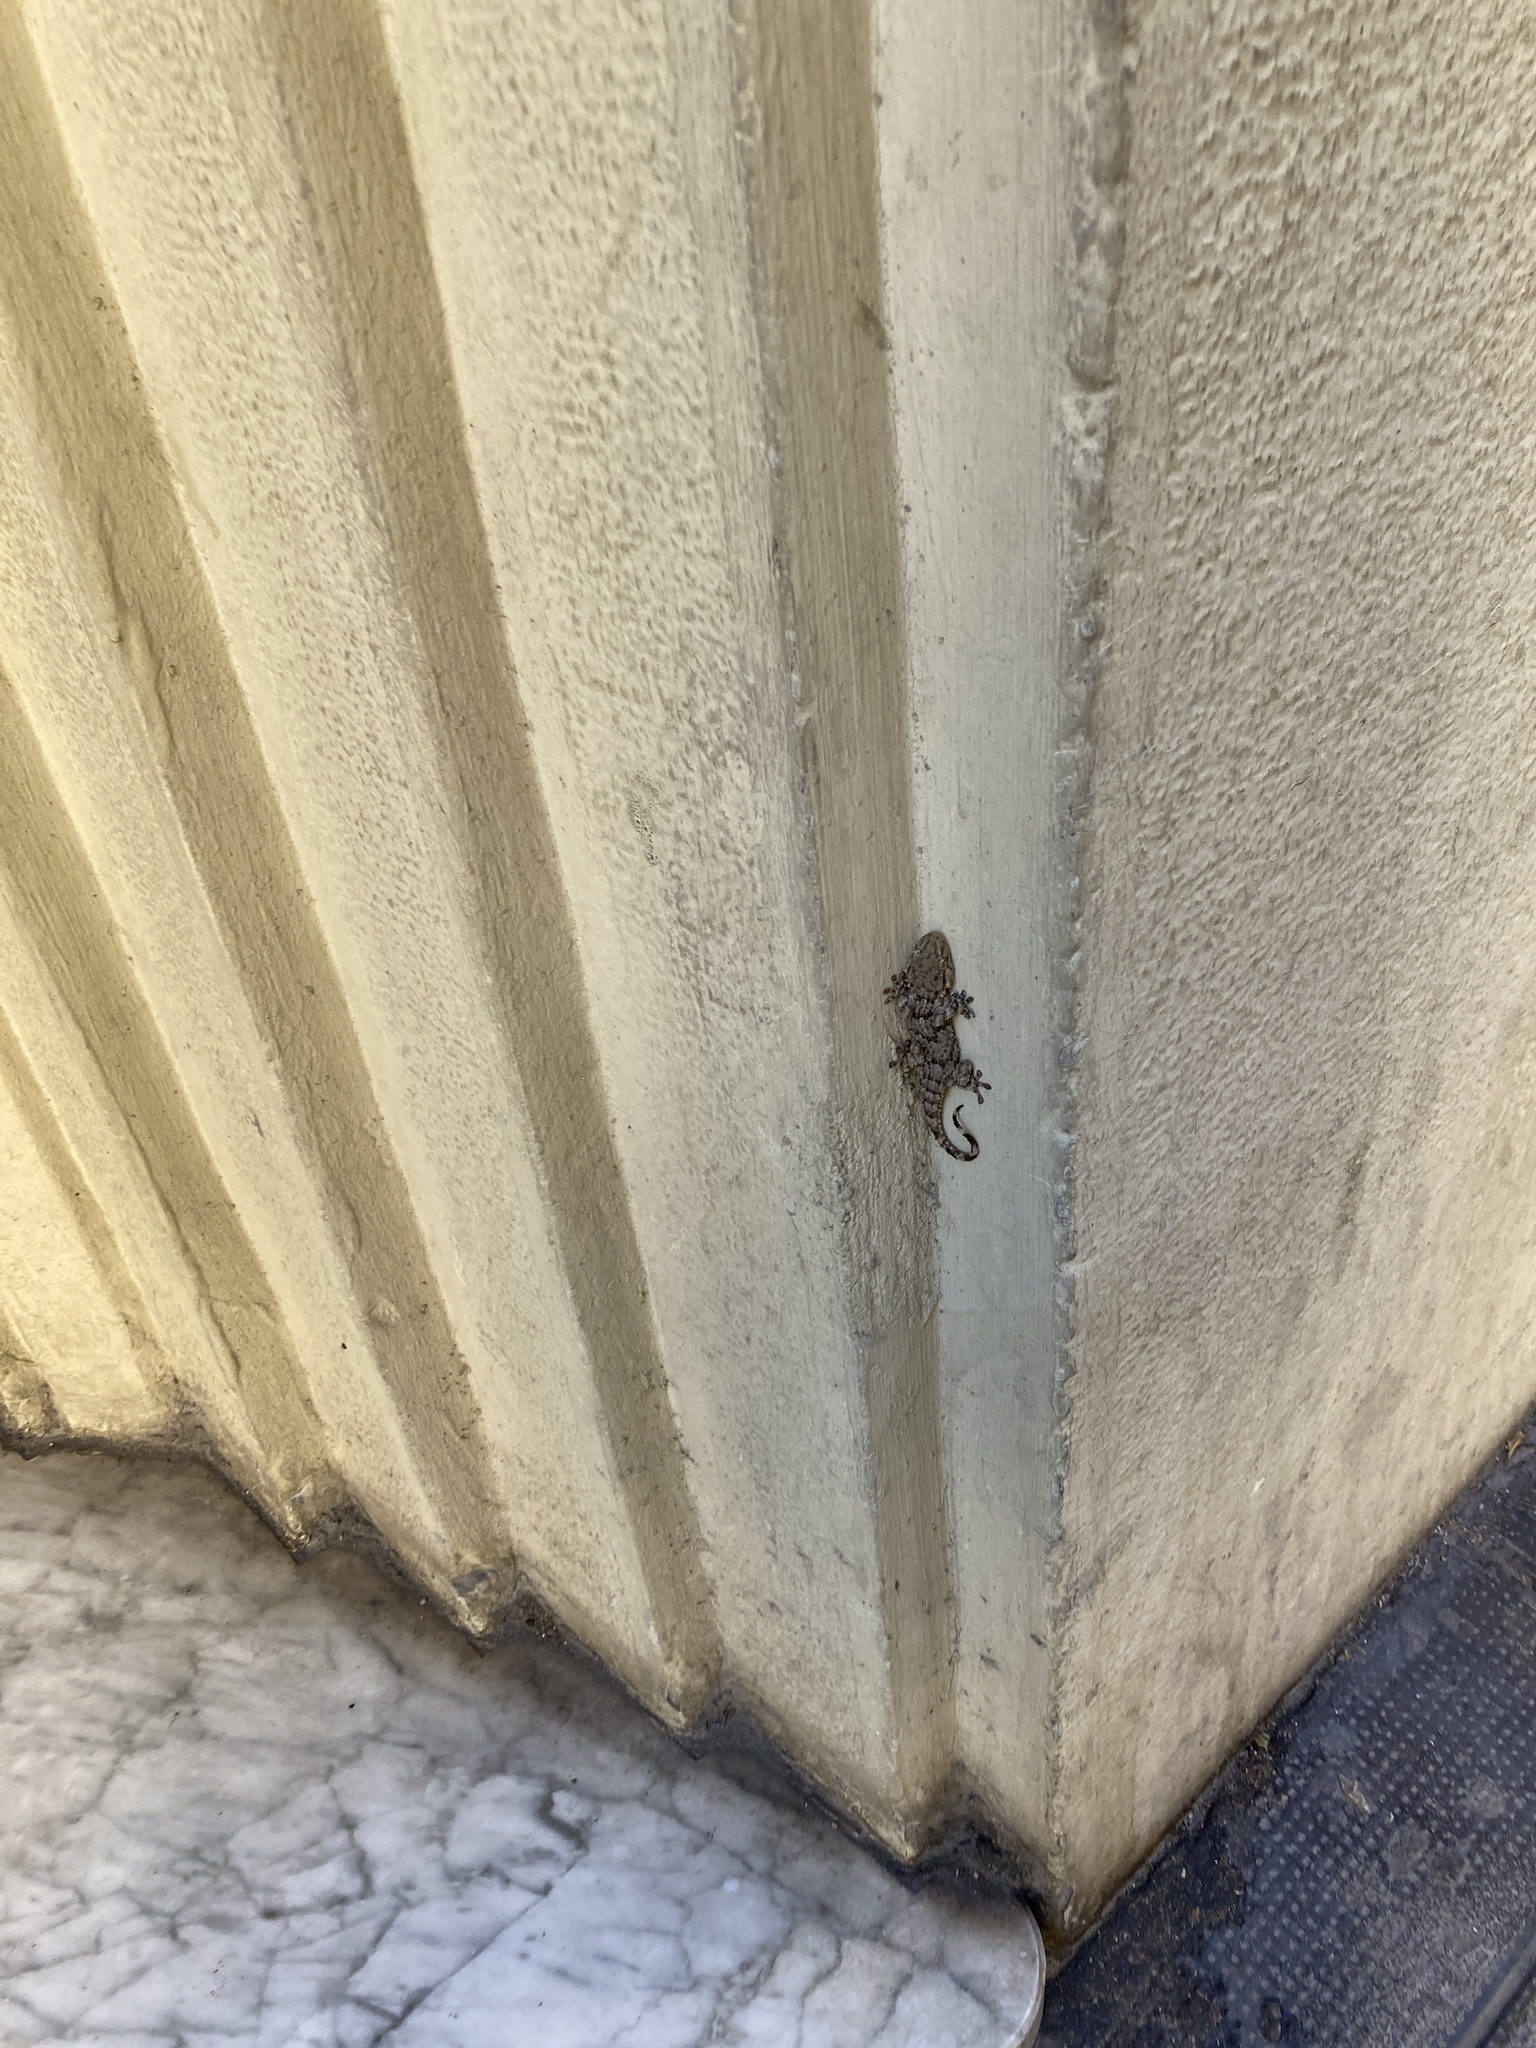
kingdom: Animalia
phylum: Chordata
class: Squamata
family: Phyllodactylidae
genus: Tarentola
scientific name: Tarentola mauritanica
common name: Moorish gecko
